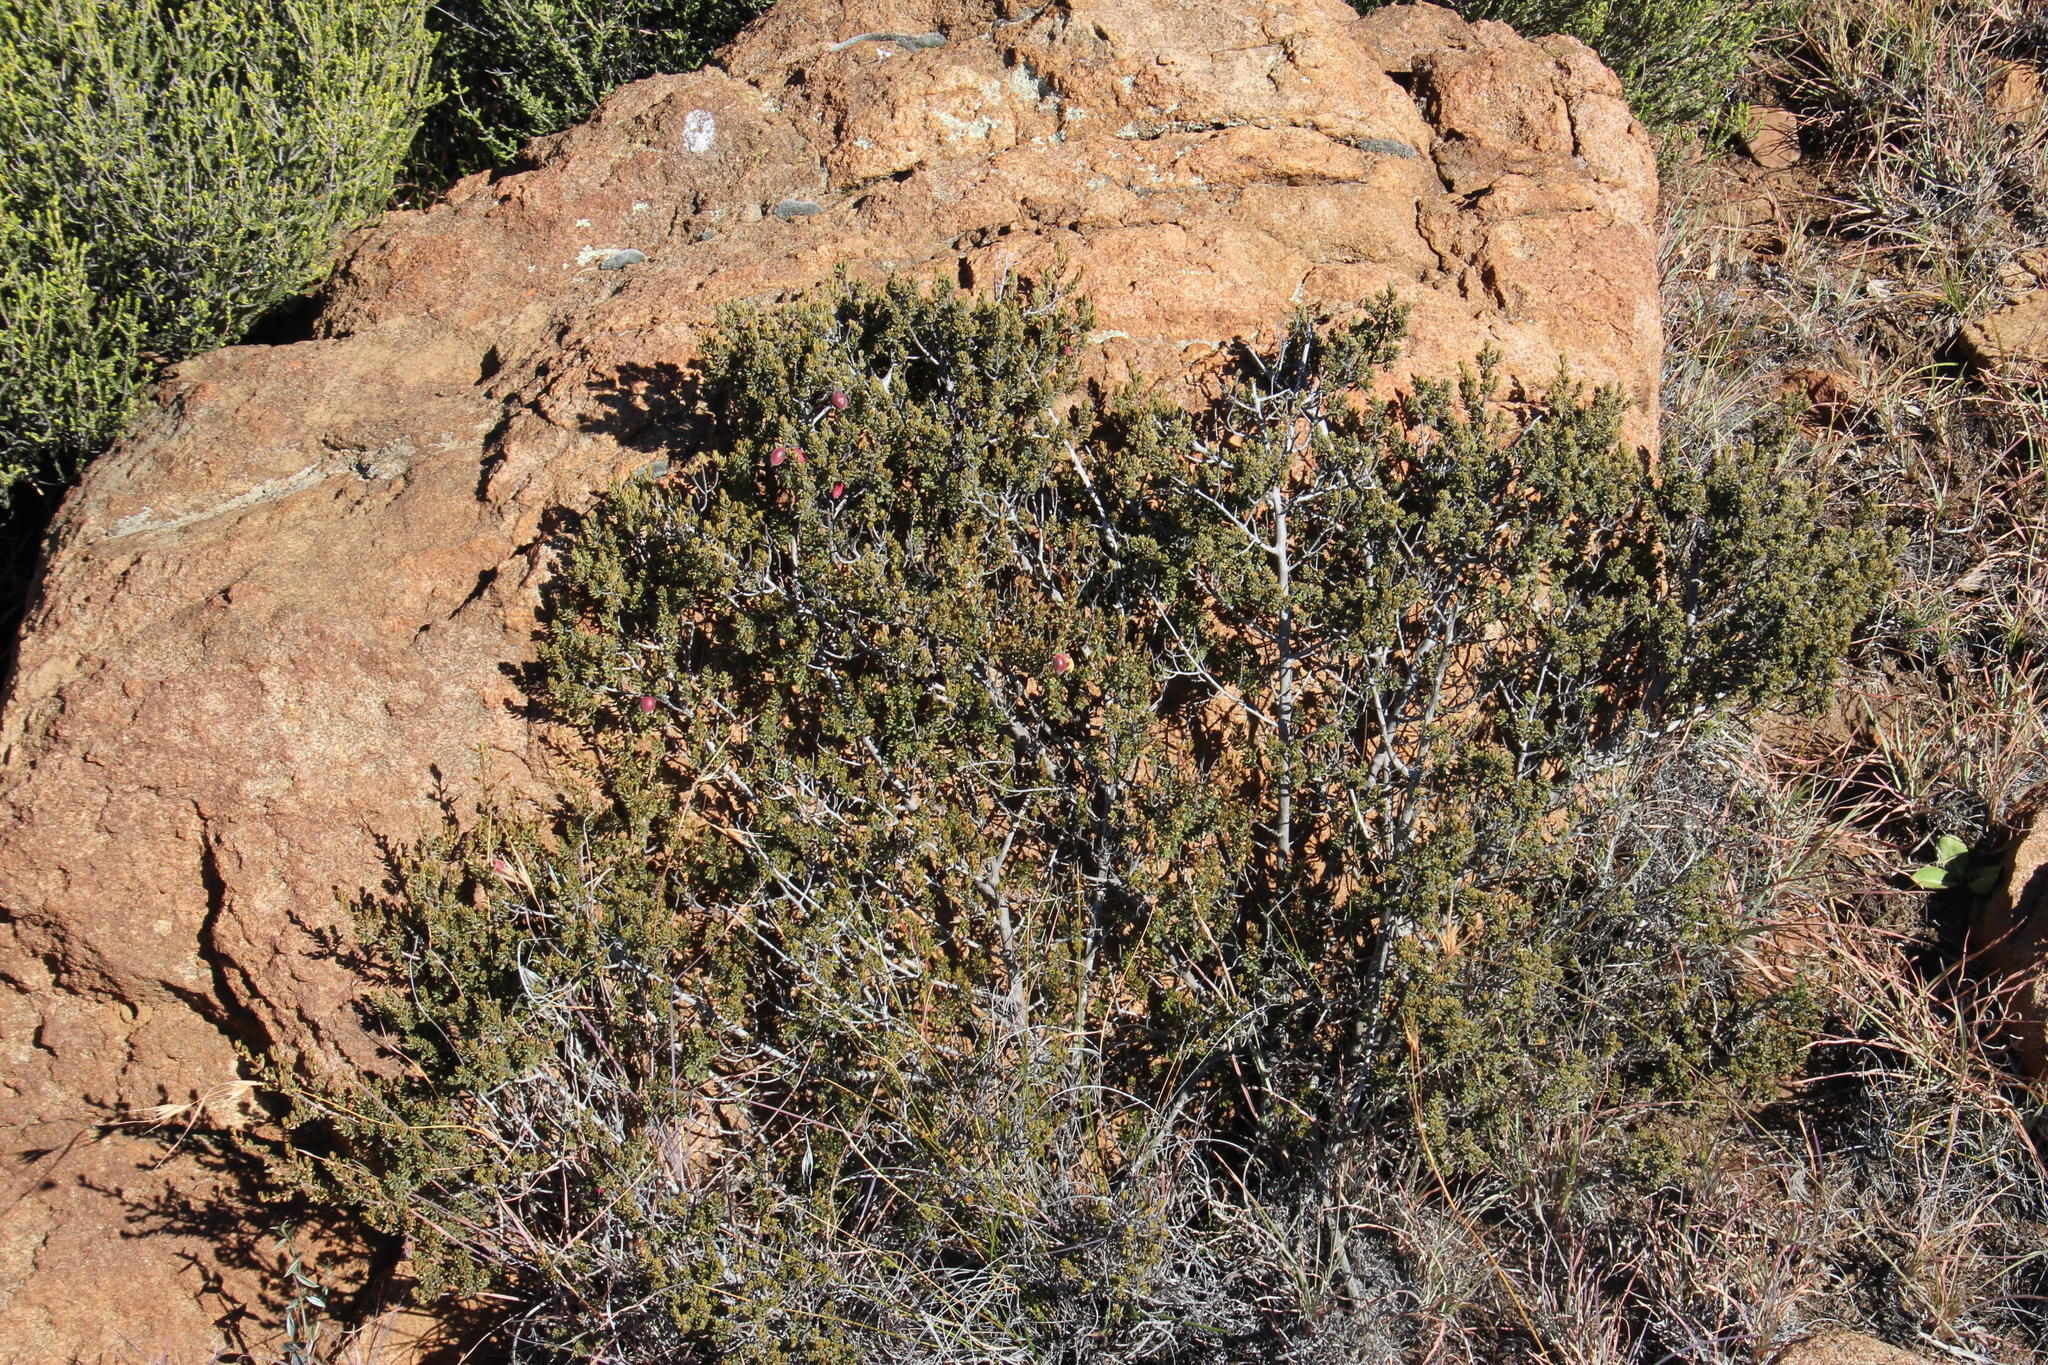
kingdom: Plantae
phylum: Tracheophyta
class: Magnoliopsida
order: Ericales
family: Ebenaceae
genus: Diospyros
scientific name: Diospyros pubescens
